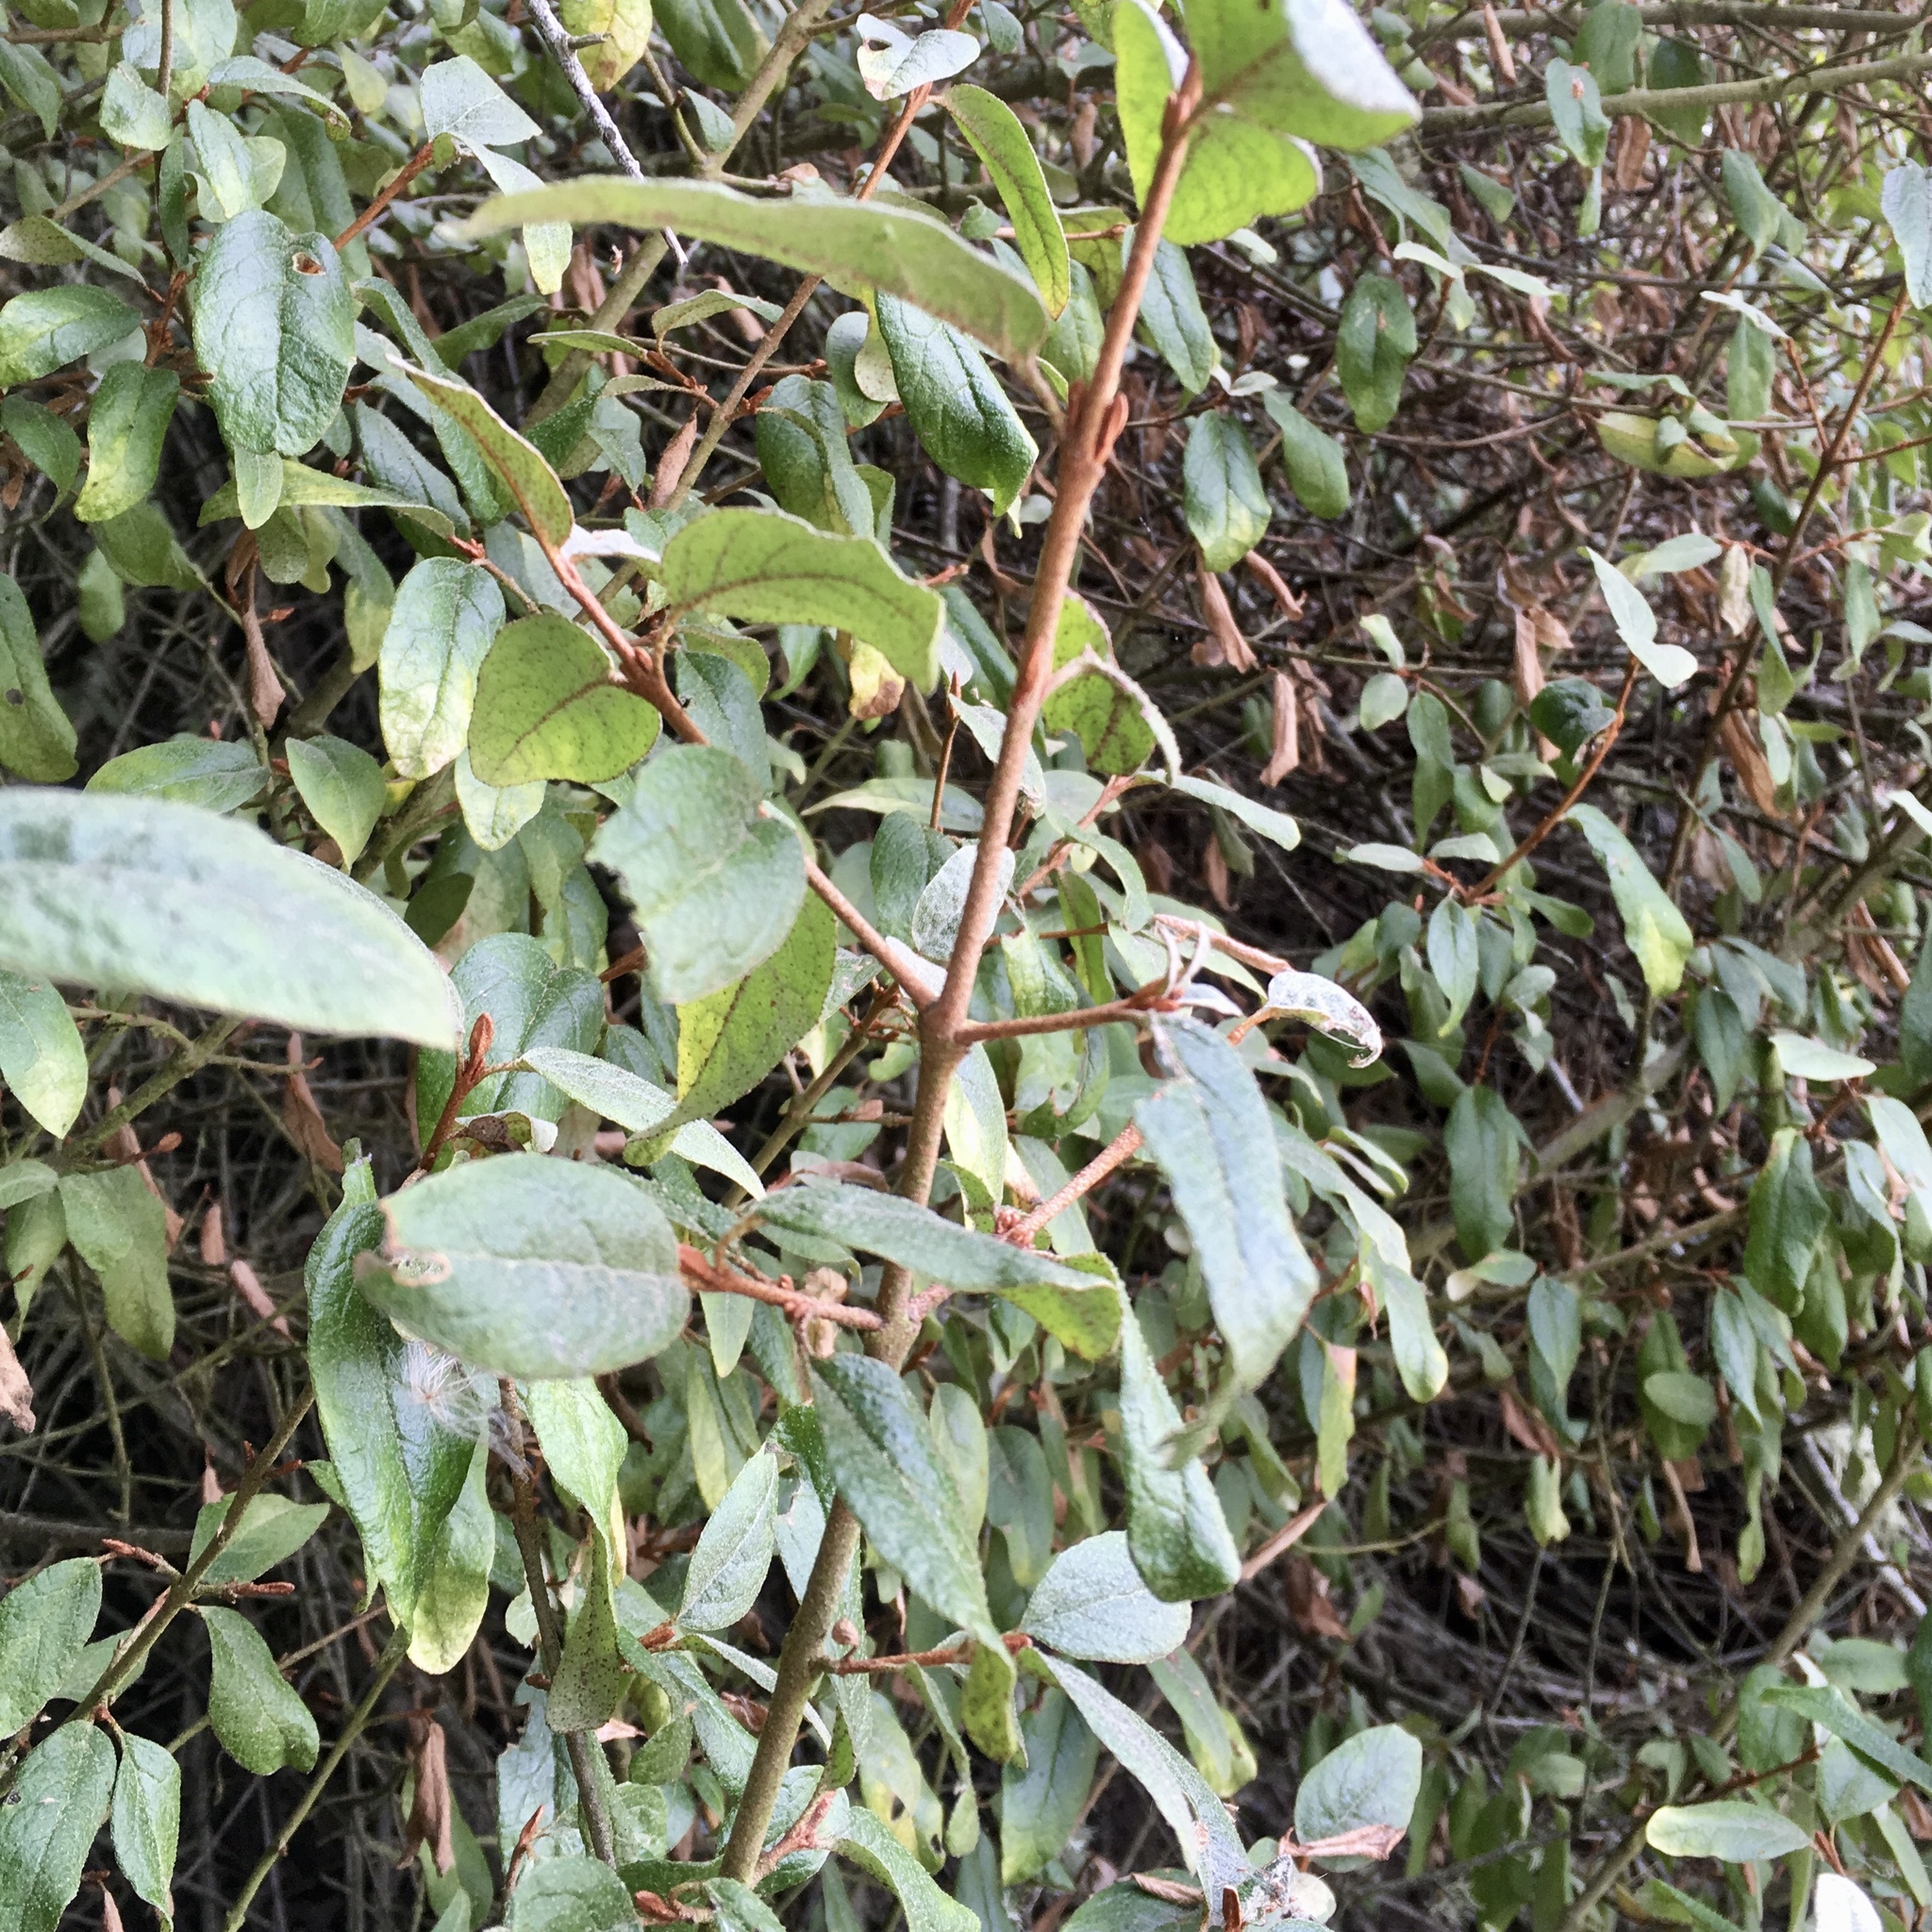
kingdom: Plantae
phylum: Tracheophyta
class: Magnoliopsida
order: Rosales
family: Elaeagnaceae
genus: Shepherdia
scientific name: Shepherdia canadensis
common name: Soapberry
